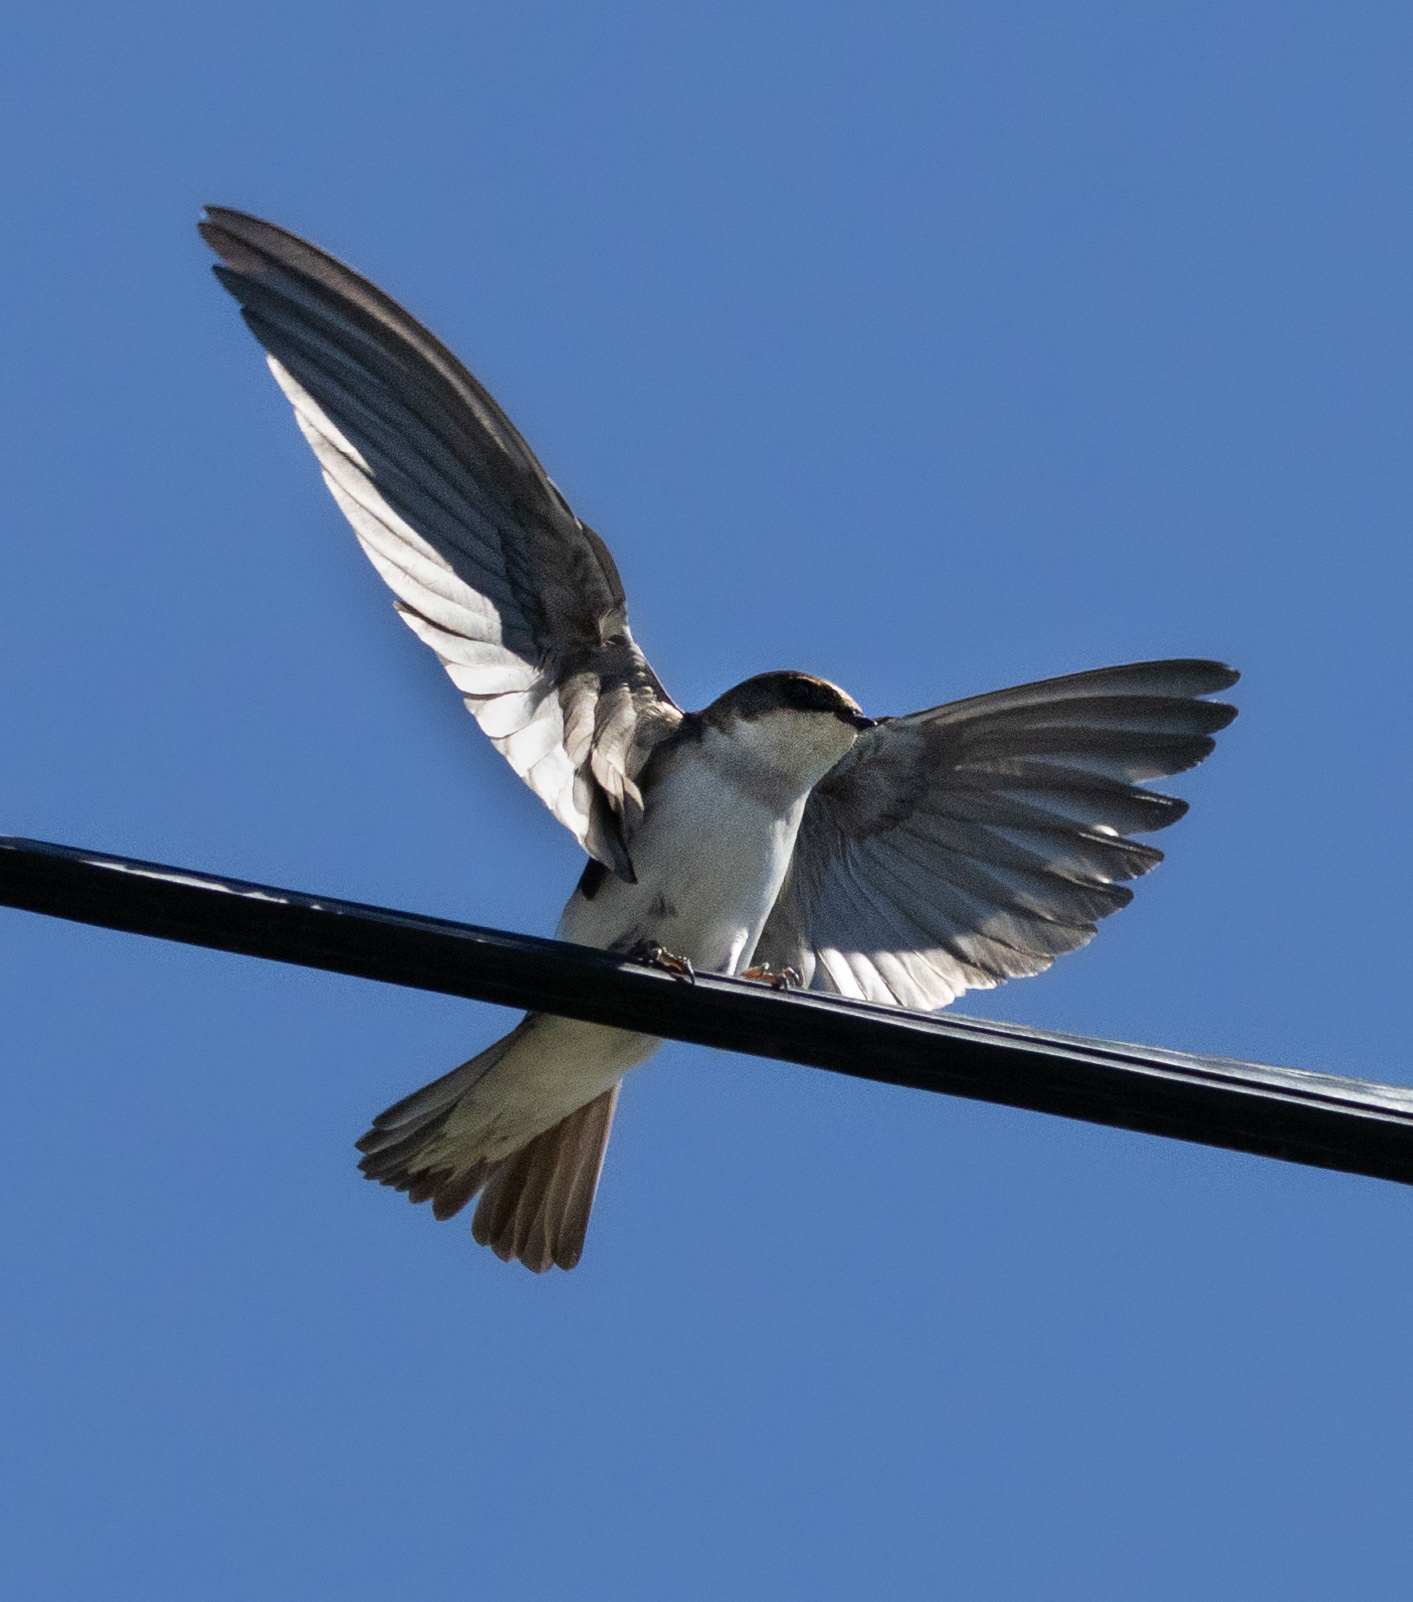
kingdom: Animalia
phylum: Chordata
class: Aves
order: Passeriformes
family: Hirundinidae
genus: Tachycineta
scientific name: Tachycineta bicolor
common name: Tree swallow
